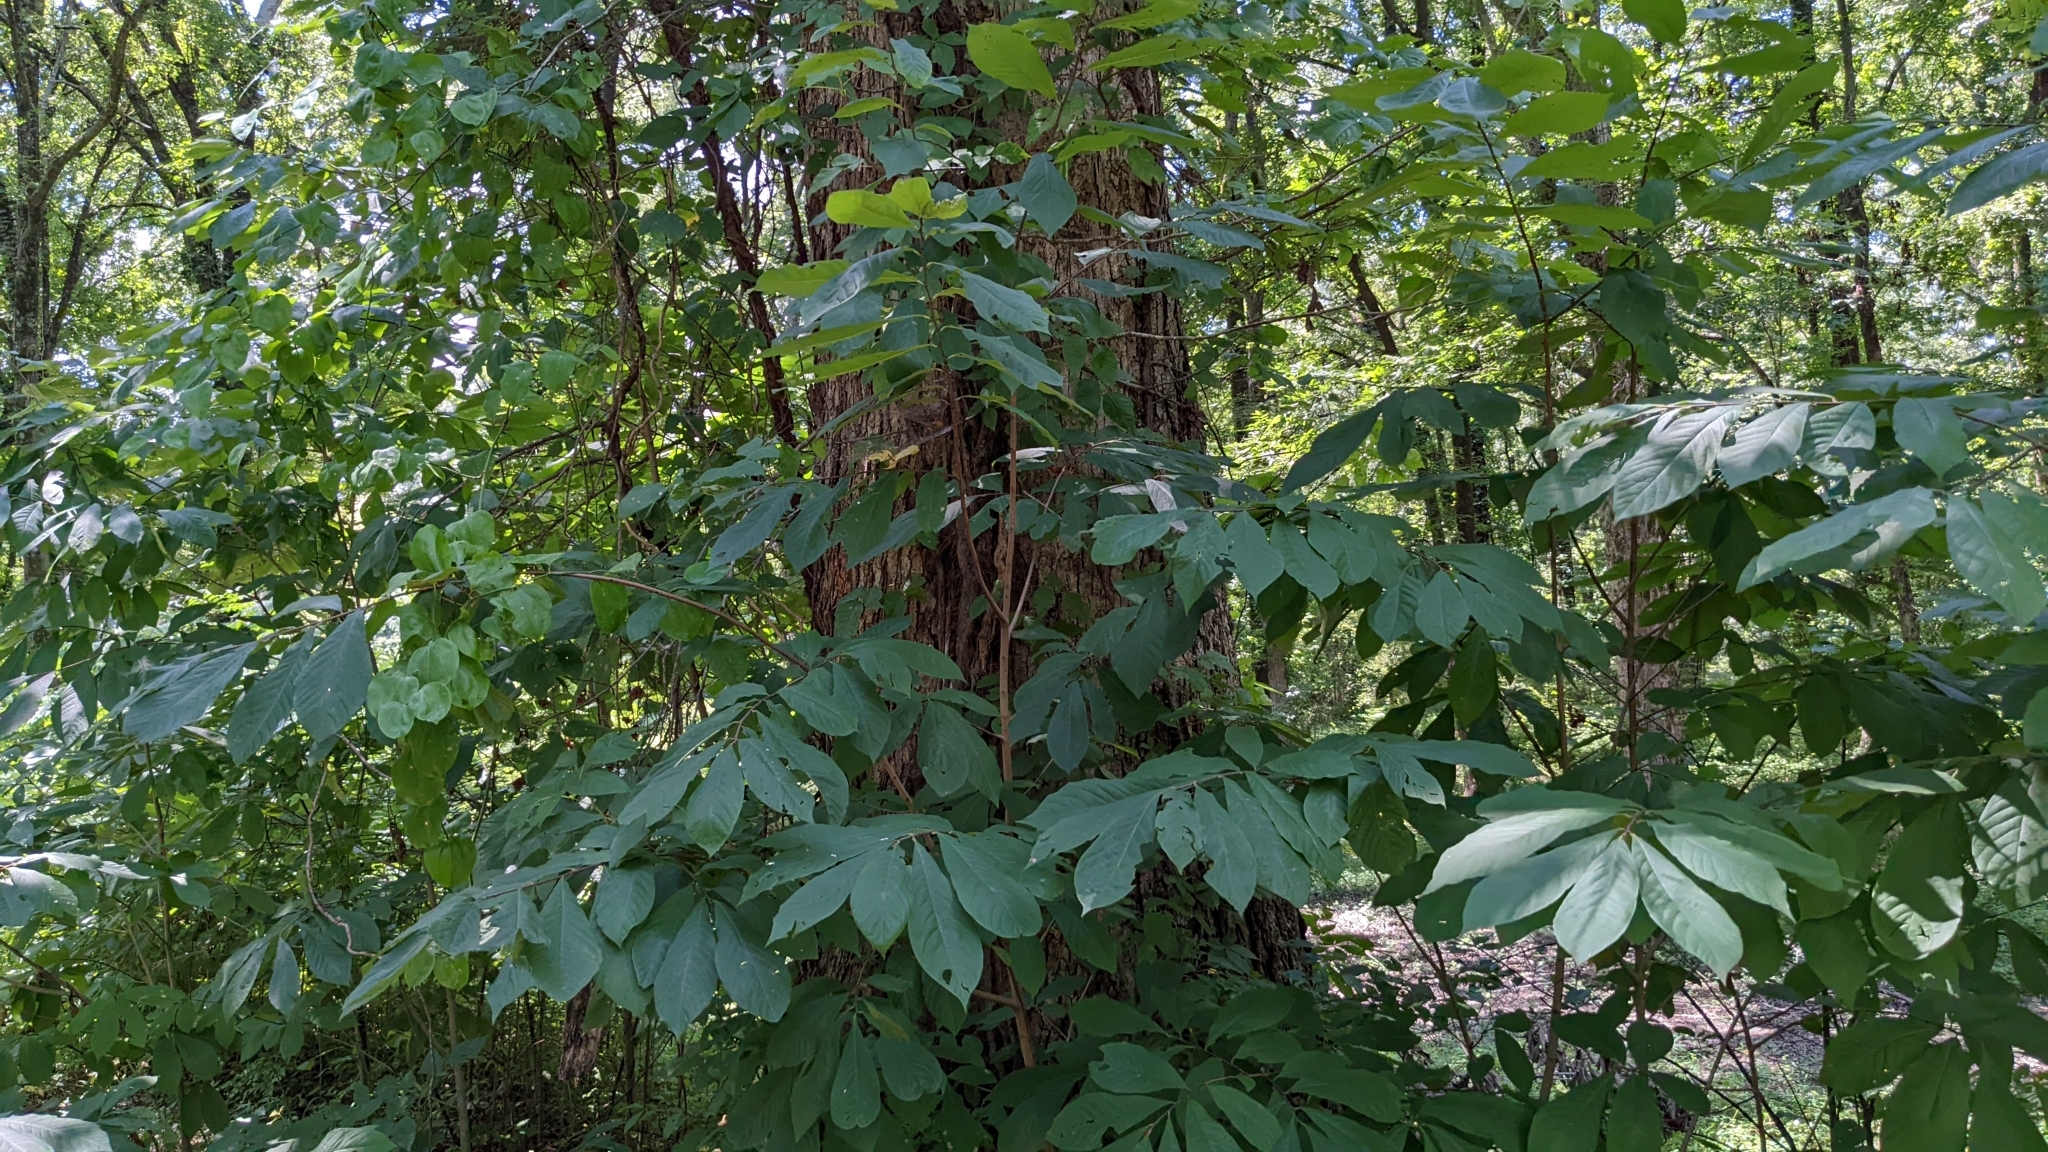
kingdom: Plantae
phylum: Tracheophyta
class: Magnoliopsida
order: Magnoliales
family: Annonaceae
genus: Asimina
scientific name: Asimina triloba
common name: Dog-banana
